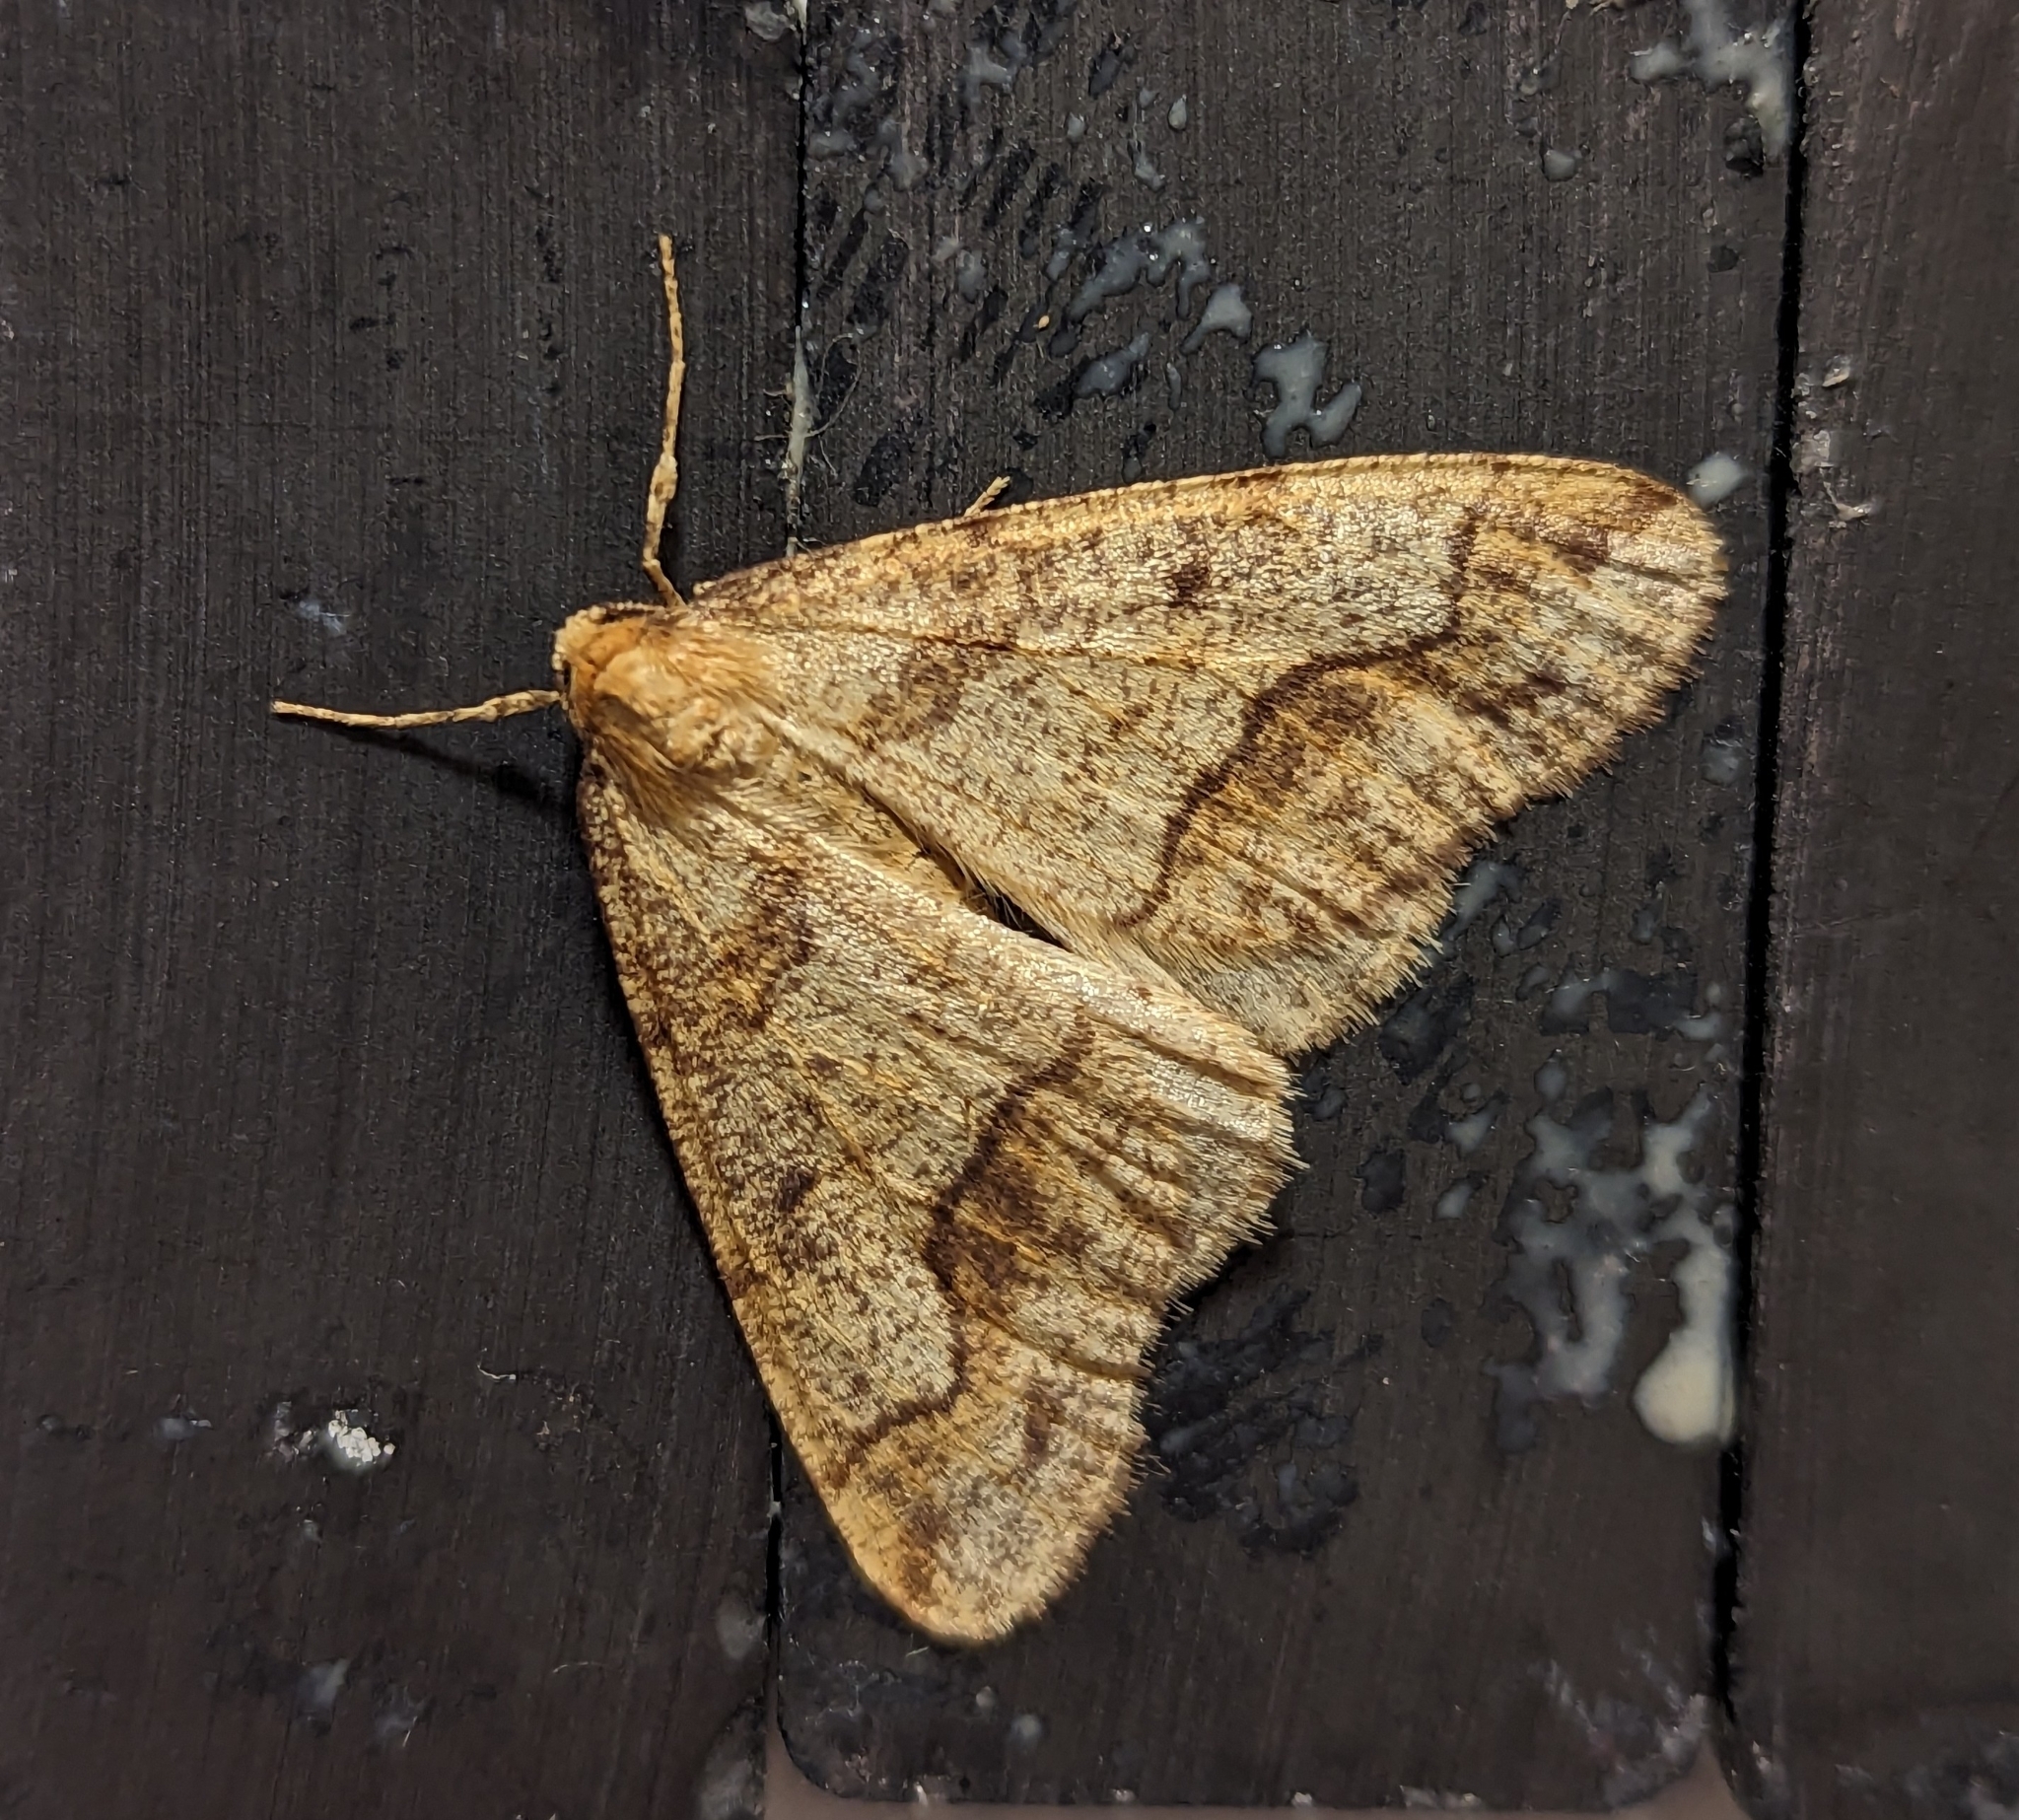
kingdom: Animalia
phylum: Arthropoda
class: Insecta
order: Lepidoptera
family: Geometridae
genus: Erannis
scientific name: Erannis tiliaria
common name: Linden looper
